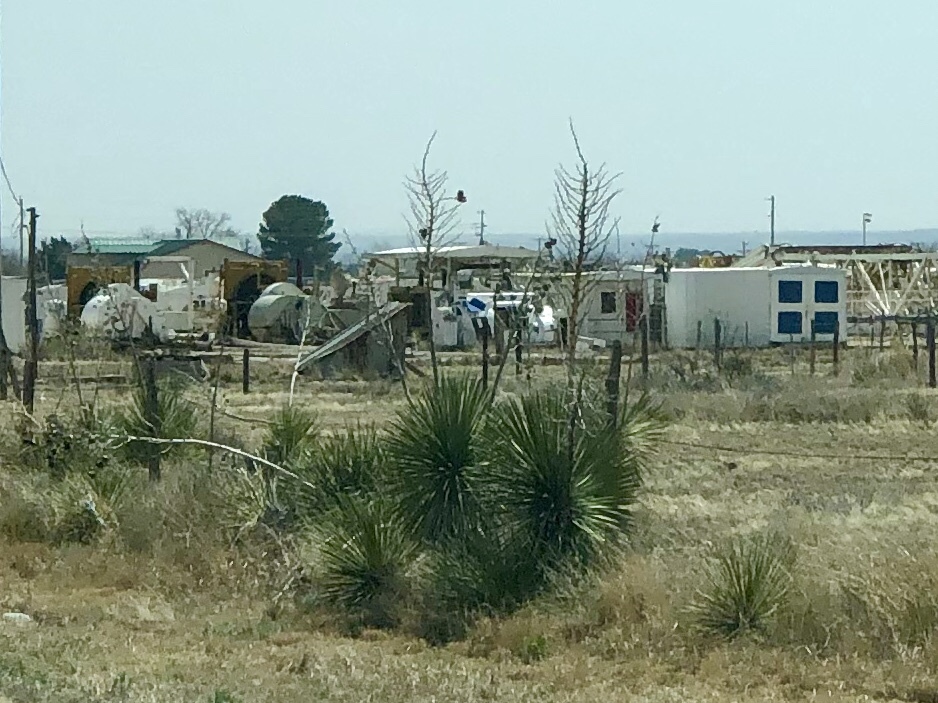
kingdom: Plantae
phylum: Tracheophyta
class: Liliopsida
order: Asparagales
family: Asparagaceae
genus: Yucca
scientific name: Yucca elata
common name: Palmella
